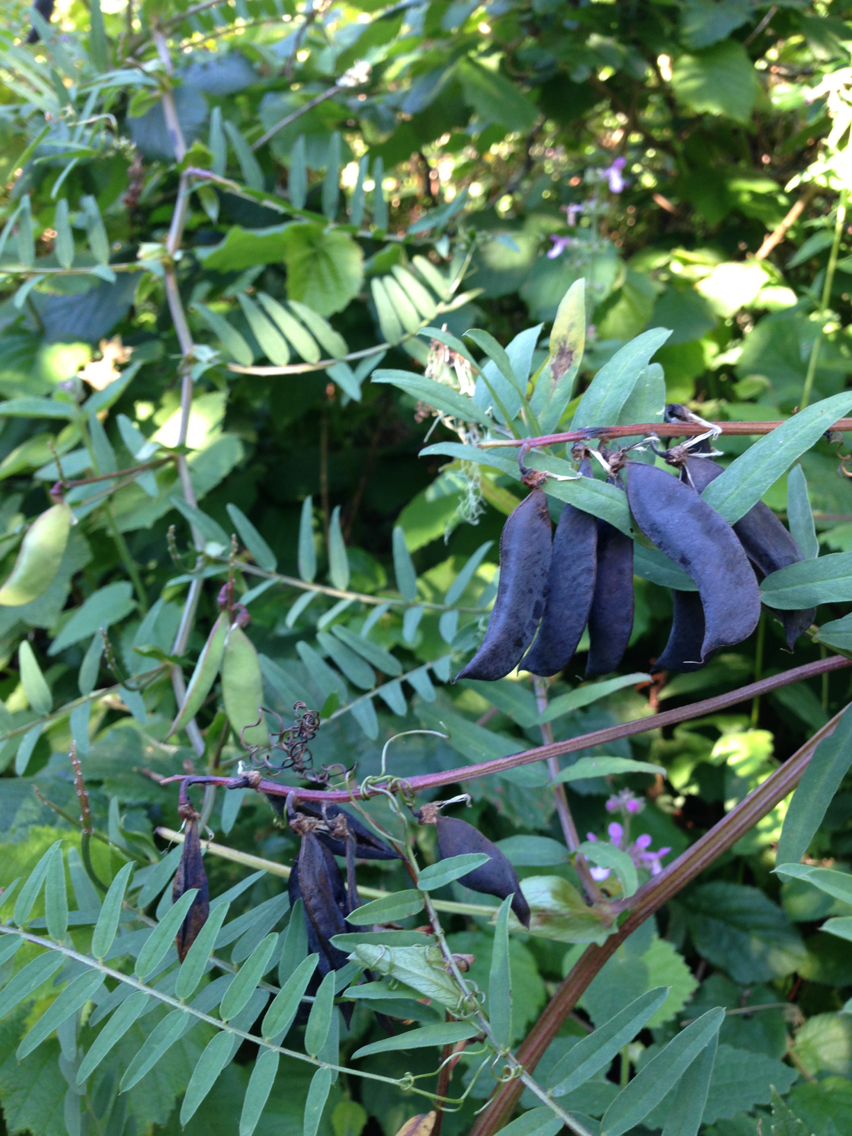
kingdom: Plantae
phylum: Tracheophyta
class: Magnoliopsida
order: Fabales
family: Fabaceae
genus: Vicia
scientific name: Vicia
